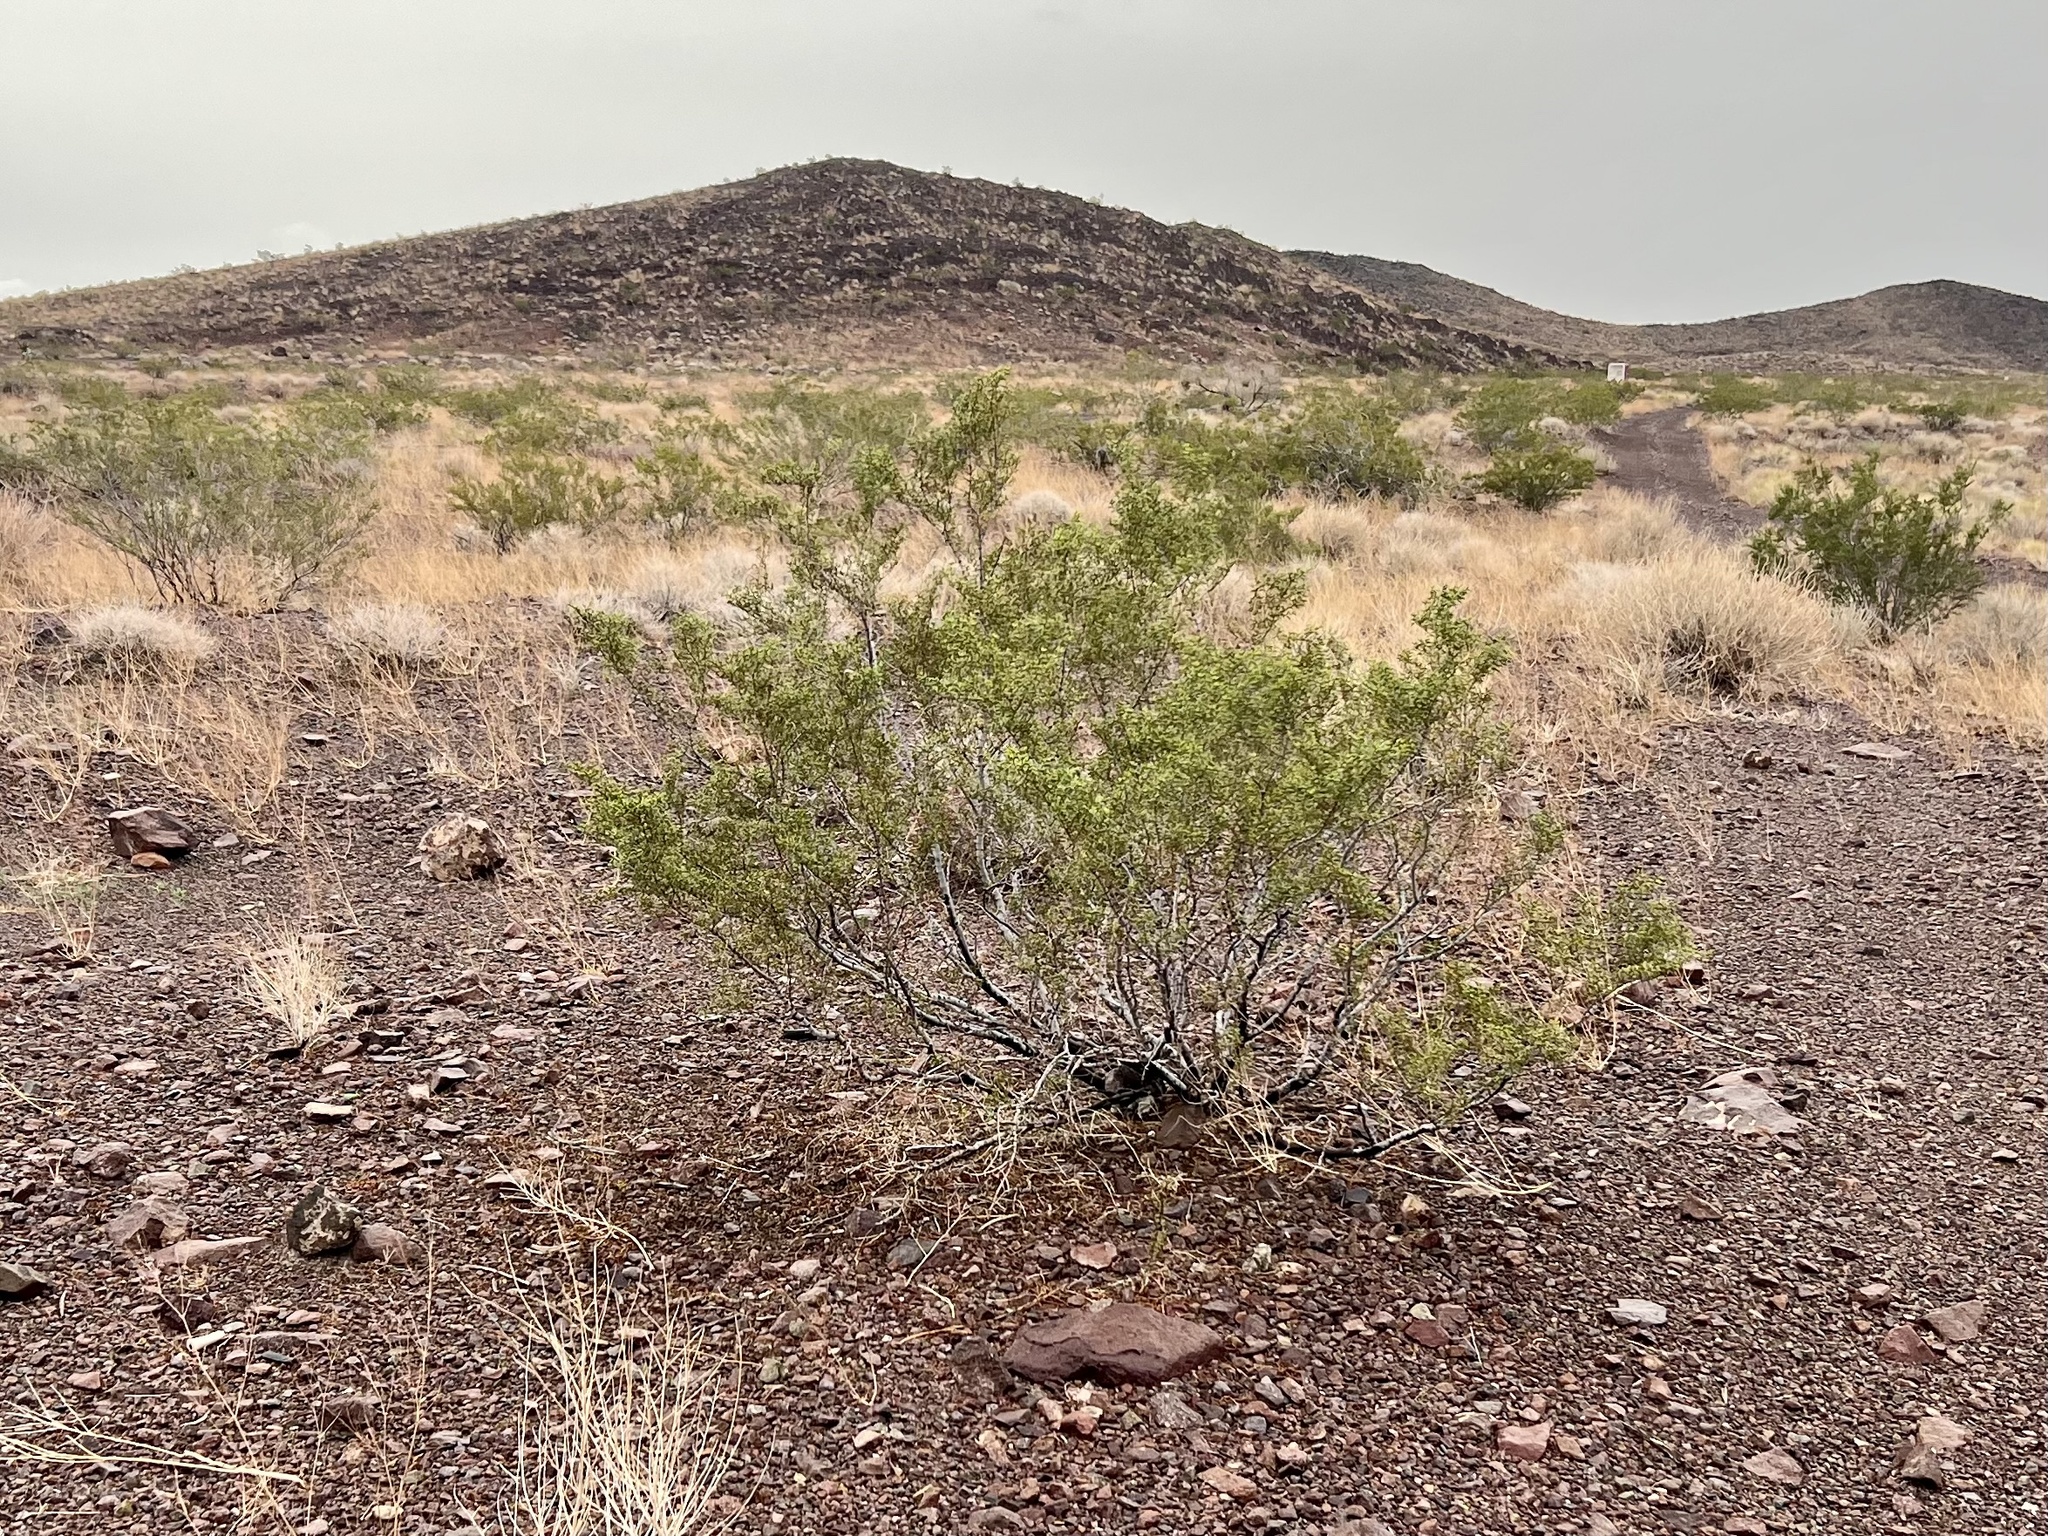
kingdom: Plantae
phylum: Tracheophyta
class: Magnoliopsida
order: Zygophyllales
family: Zygophyllaceae
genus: Larrea
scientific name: Larrea tridentata
